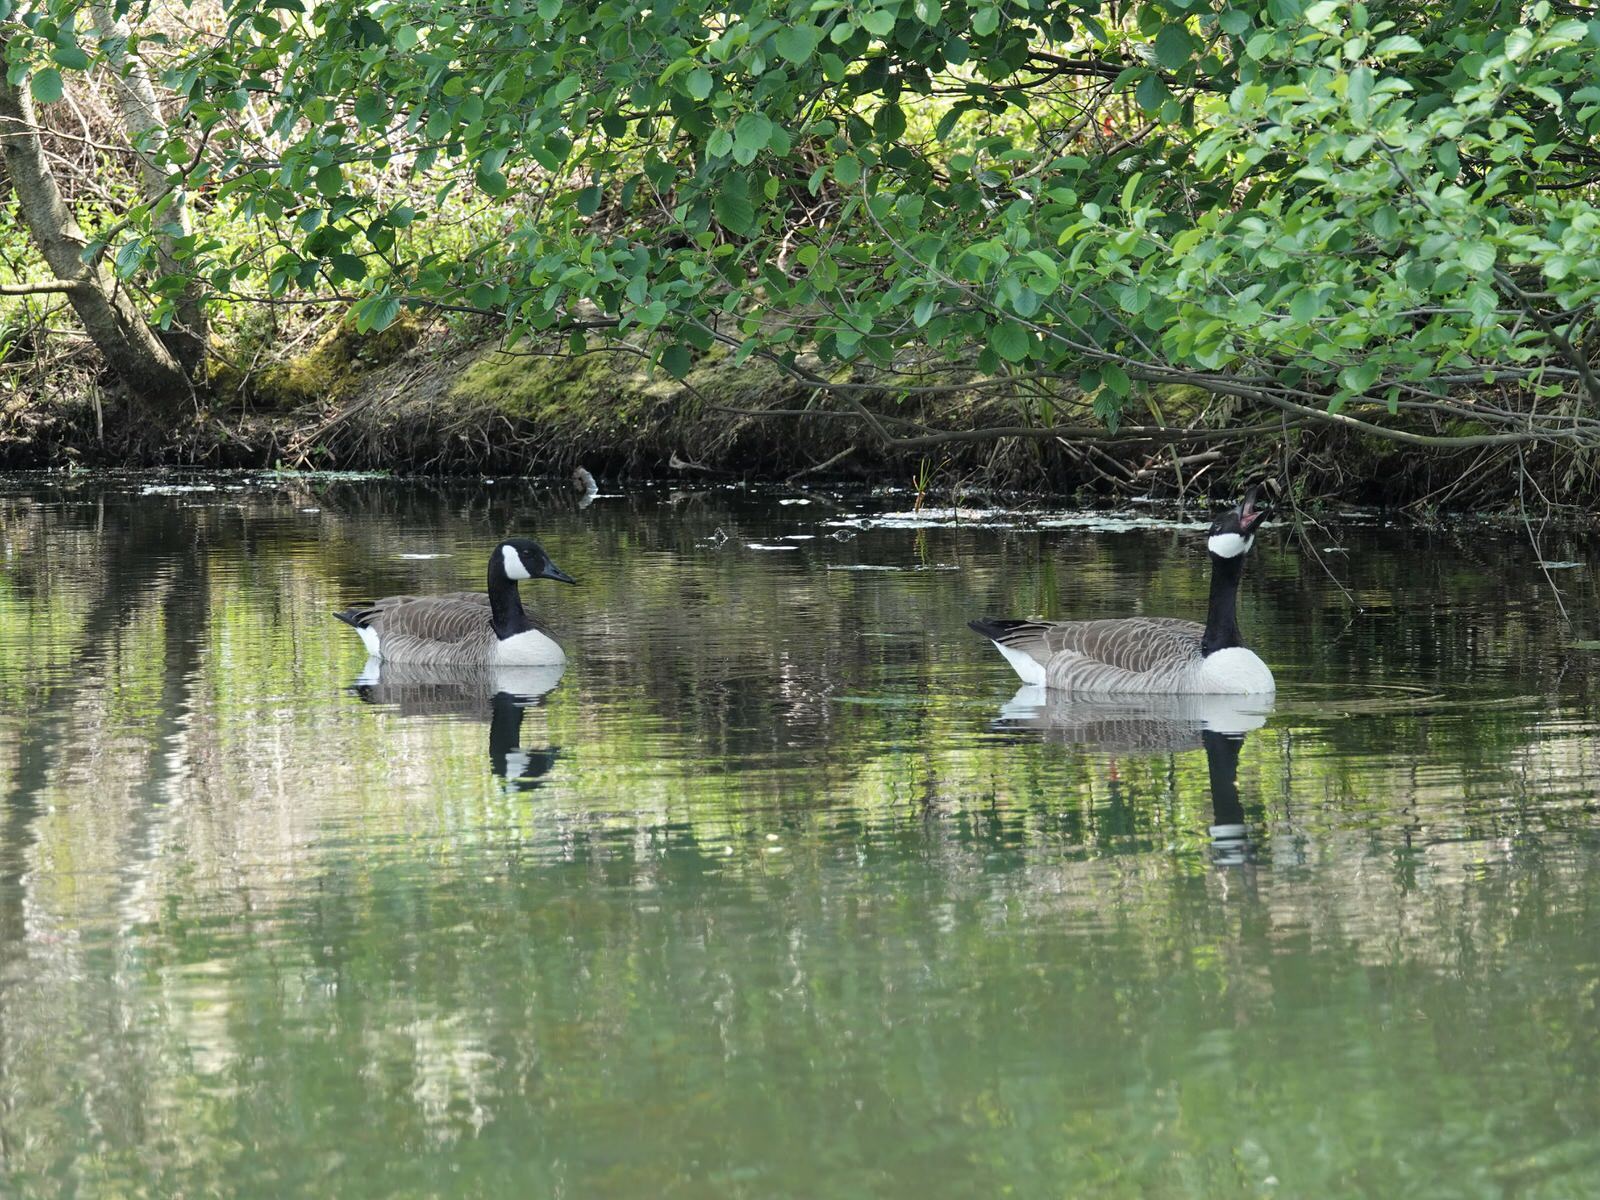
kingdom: Animalia
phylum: Chordata
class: Aves
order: Anseriformes
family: Anatidae
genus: Branta
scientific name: Branta canadensis
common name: Canada goose
